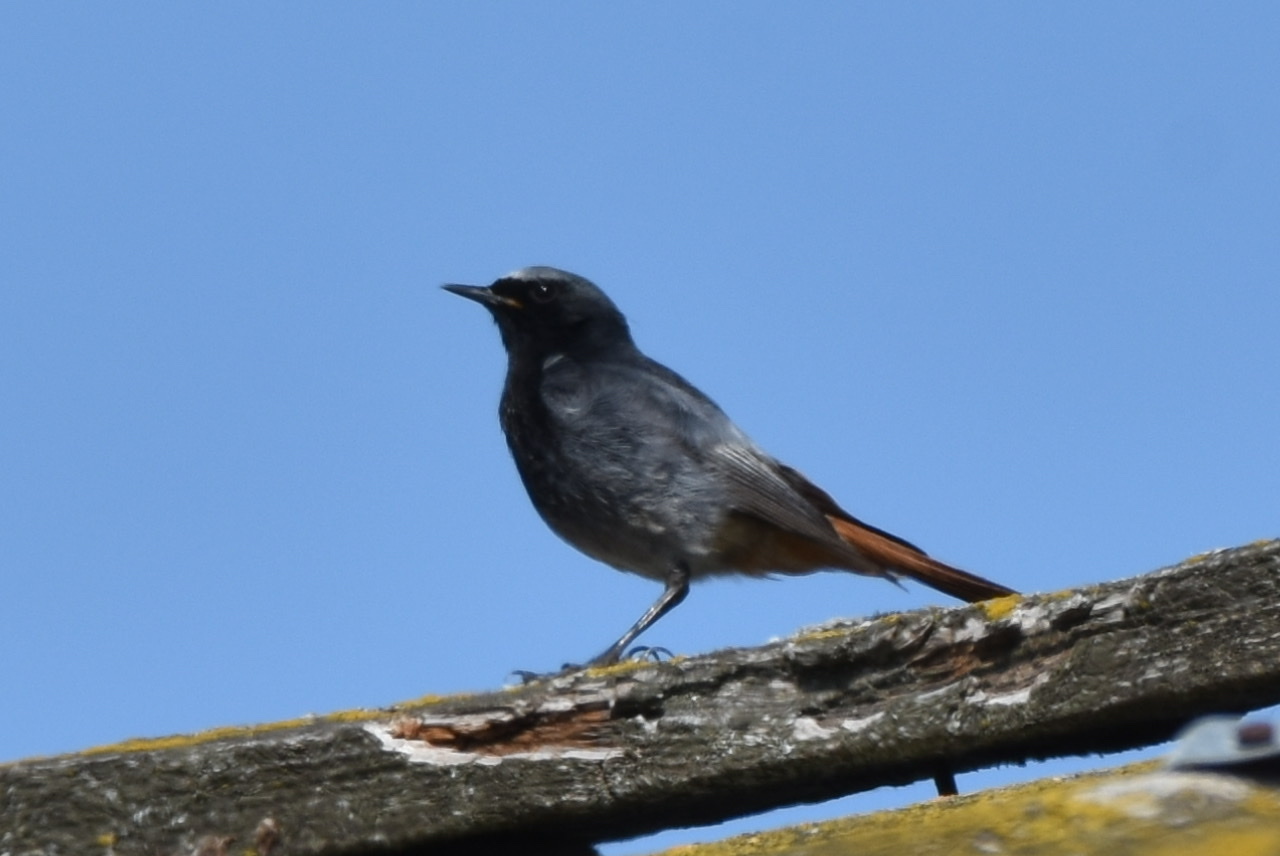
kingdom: Animalia
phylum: Chordata
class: Aves
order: Passeriformes
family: Muscicapidae
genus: Phoenicurus
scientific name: Phoenicurus ochruros
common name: Black redstart
